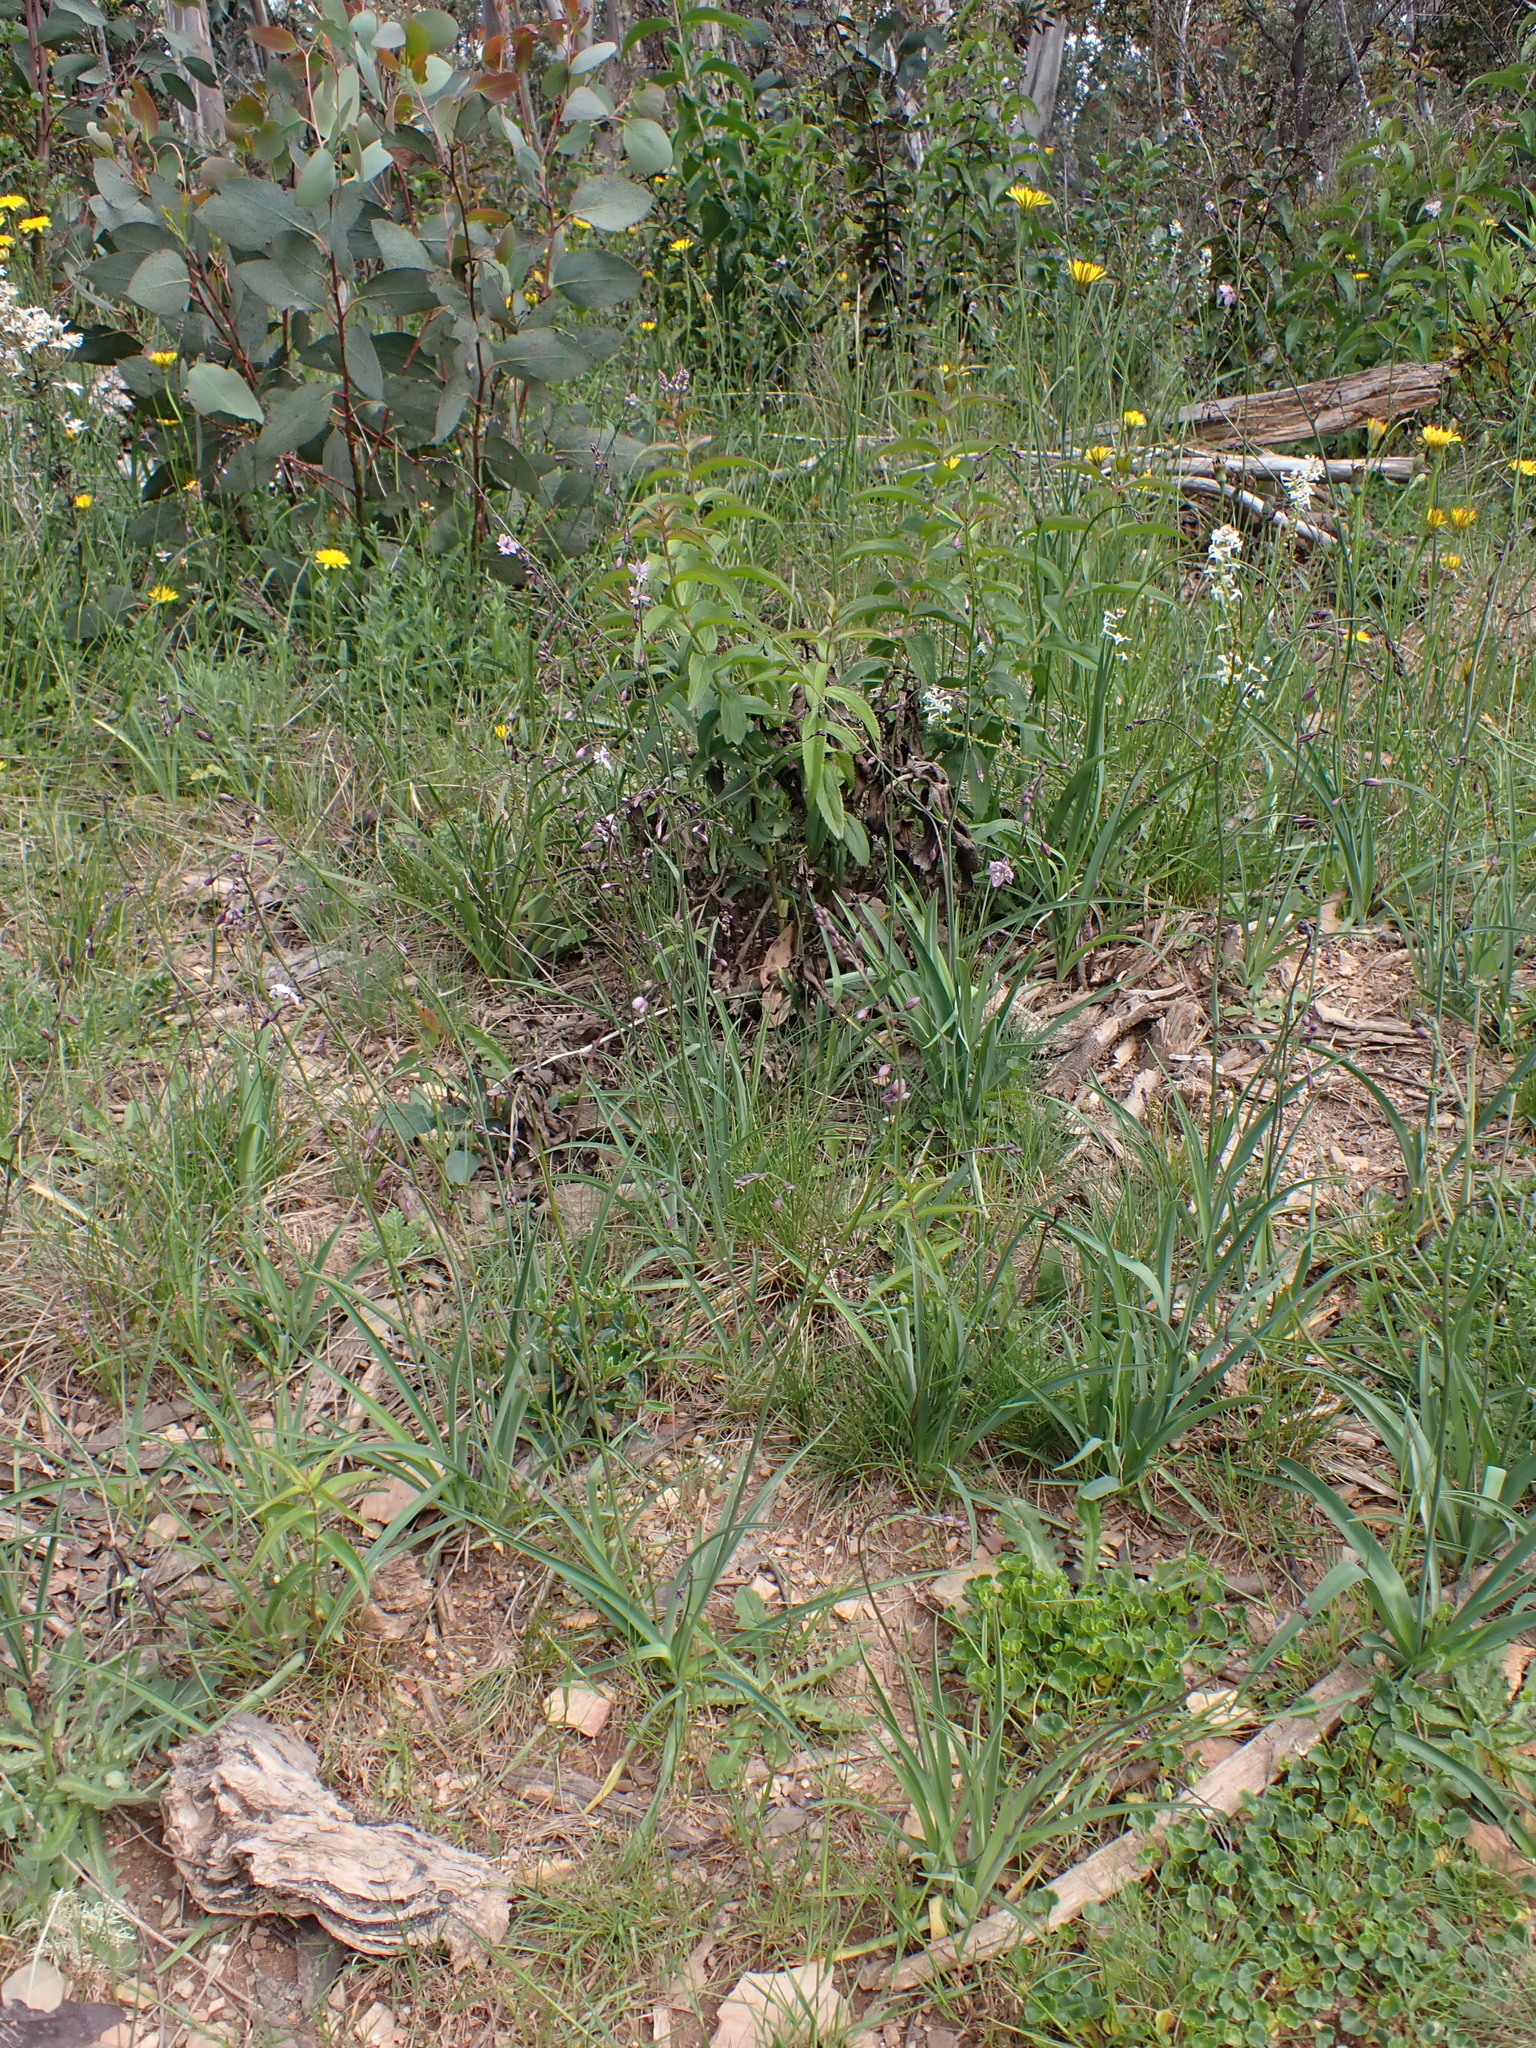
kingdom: Plantae
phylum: Tracheophyta
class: Liliopsida
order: Asparagales
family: Asparagaceae
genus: Arthropodium
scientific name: Arthropodium milleflorum
